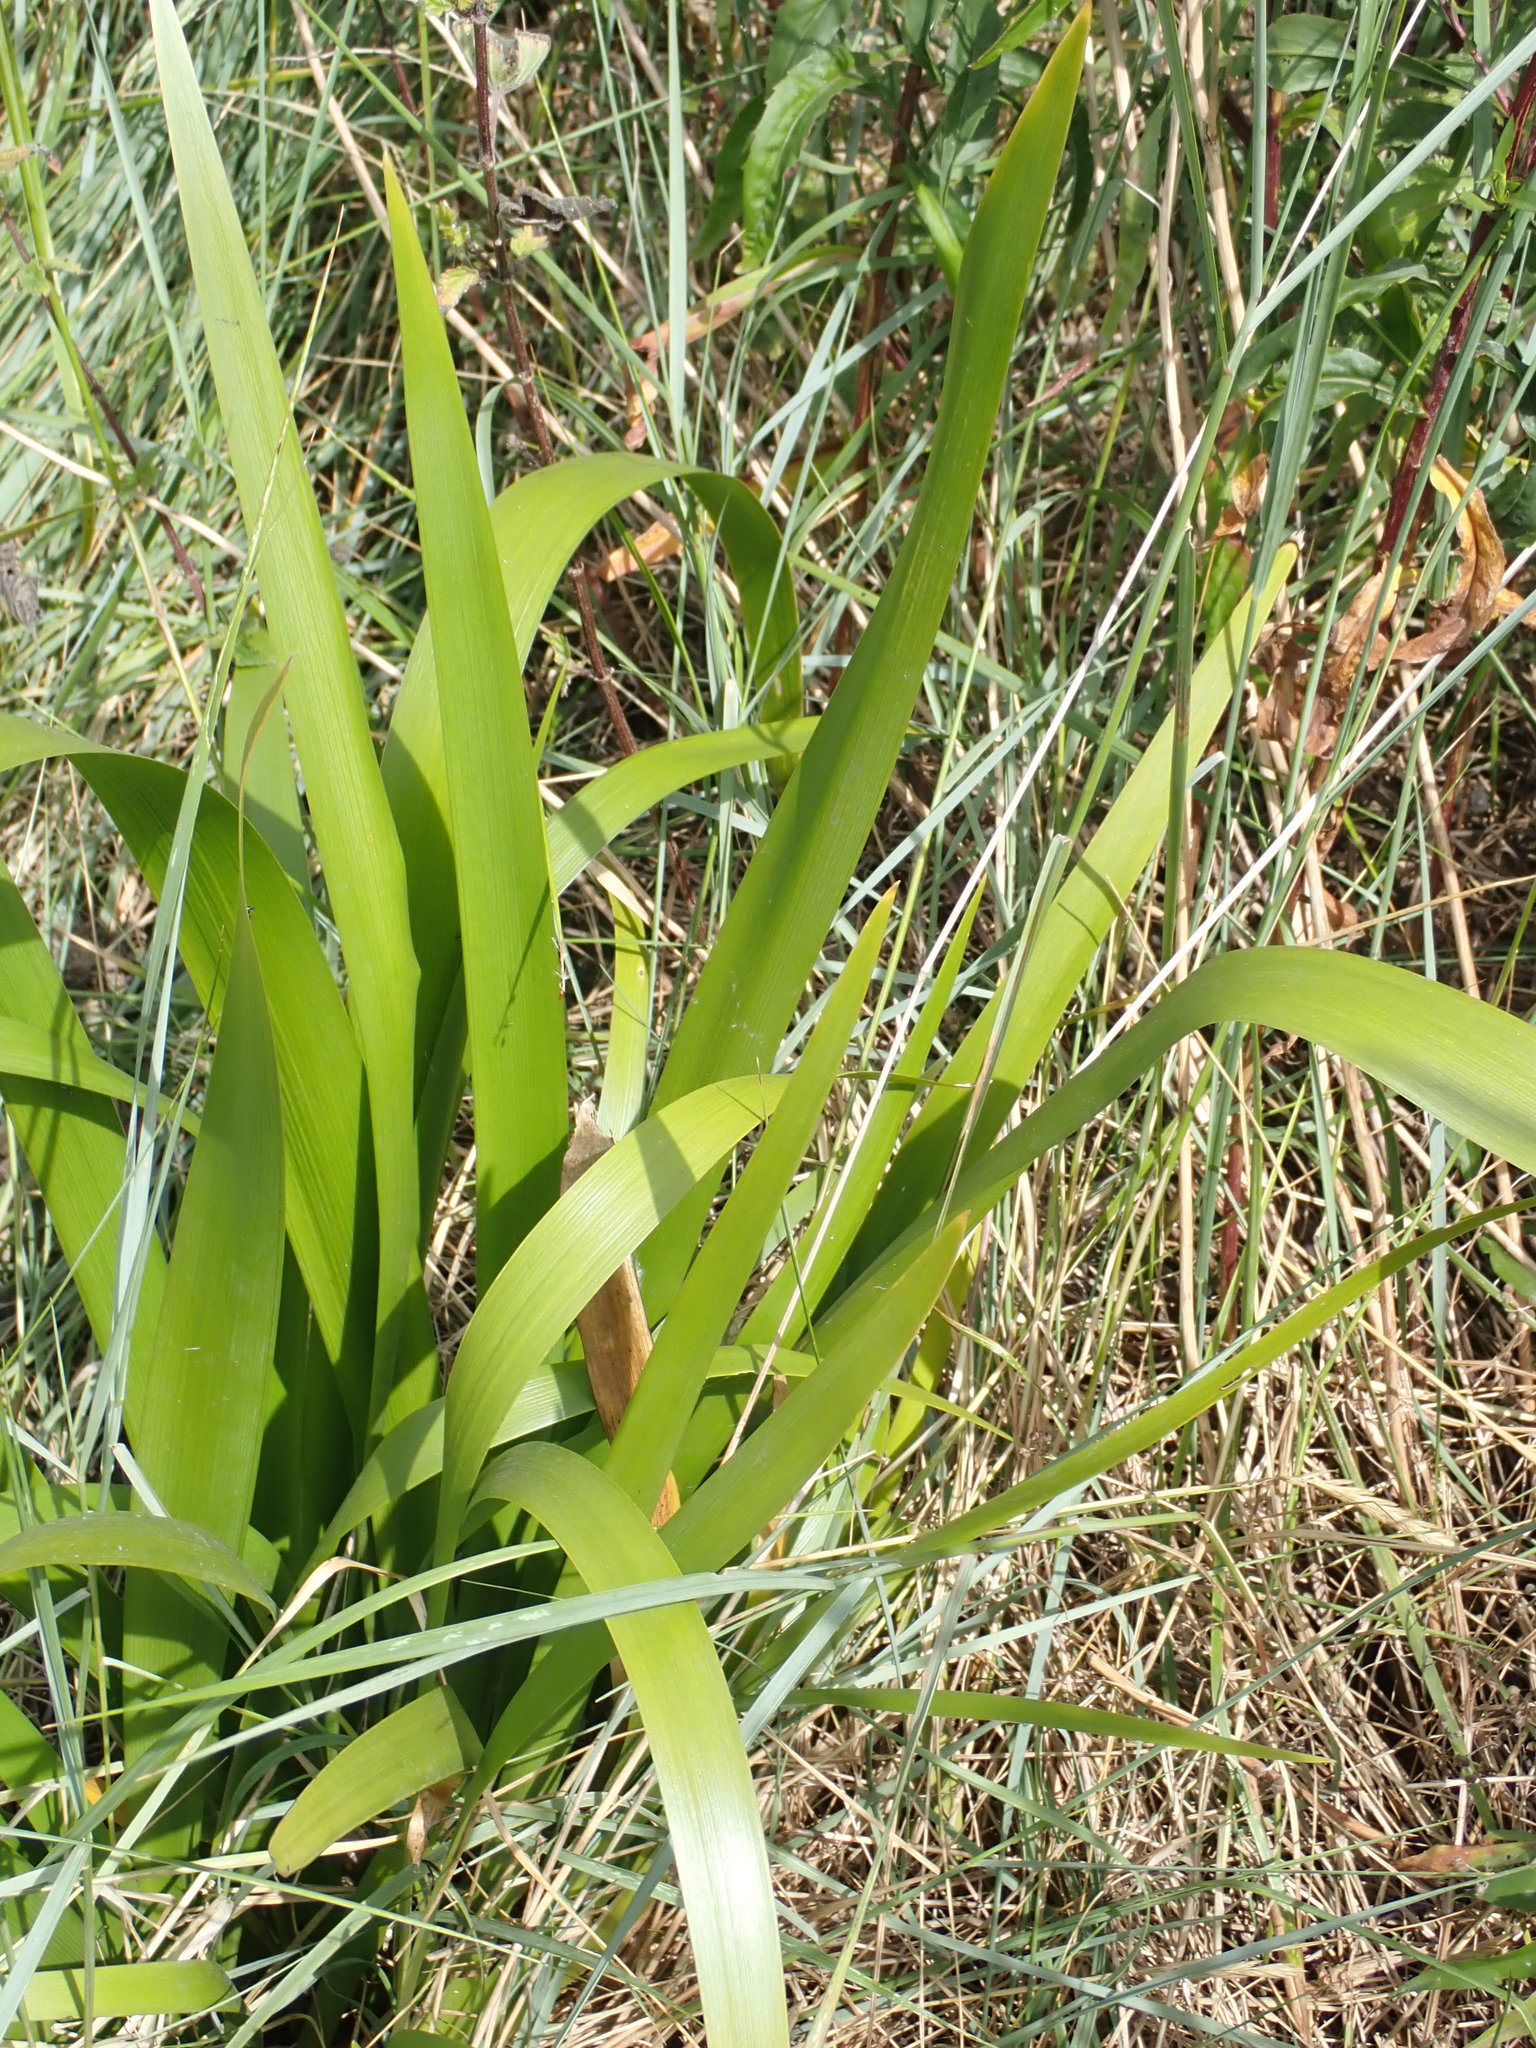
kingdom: Plantae
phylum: Tracheophyta
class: Liliopsida
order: Asparagales
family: Iridaceae
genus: Iris
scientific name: Iris foetidissima
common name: Stinking iris
